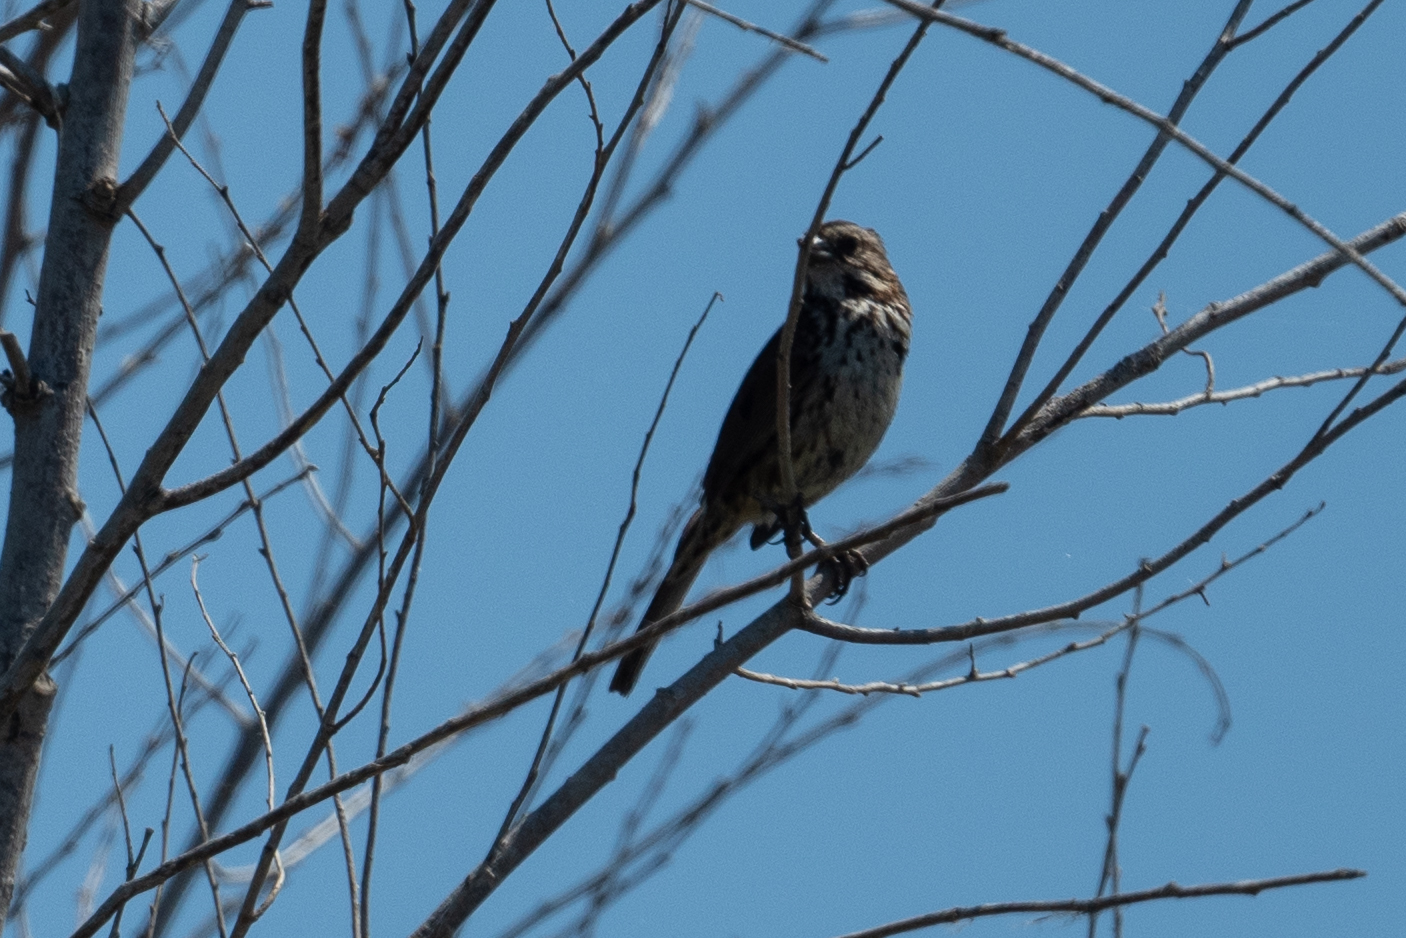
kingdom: Animalia
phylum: Chordata
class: Aves
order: Passeriformes
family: Passerellidae
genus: Melospiza
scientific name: Melospiza melodia
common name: Song sparrow
